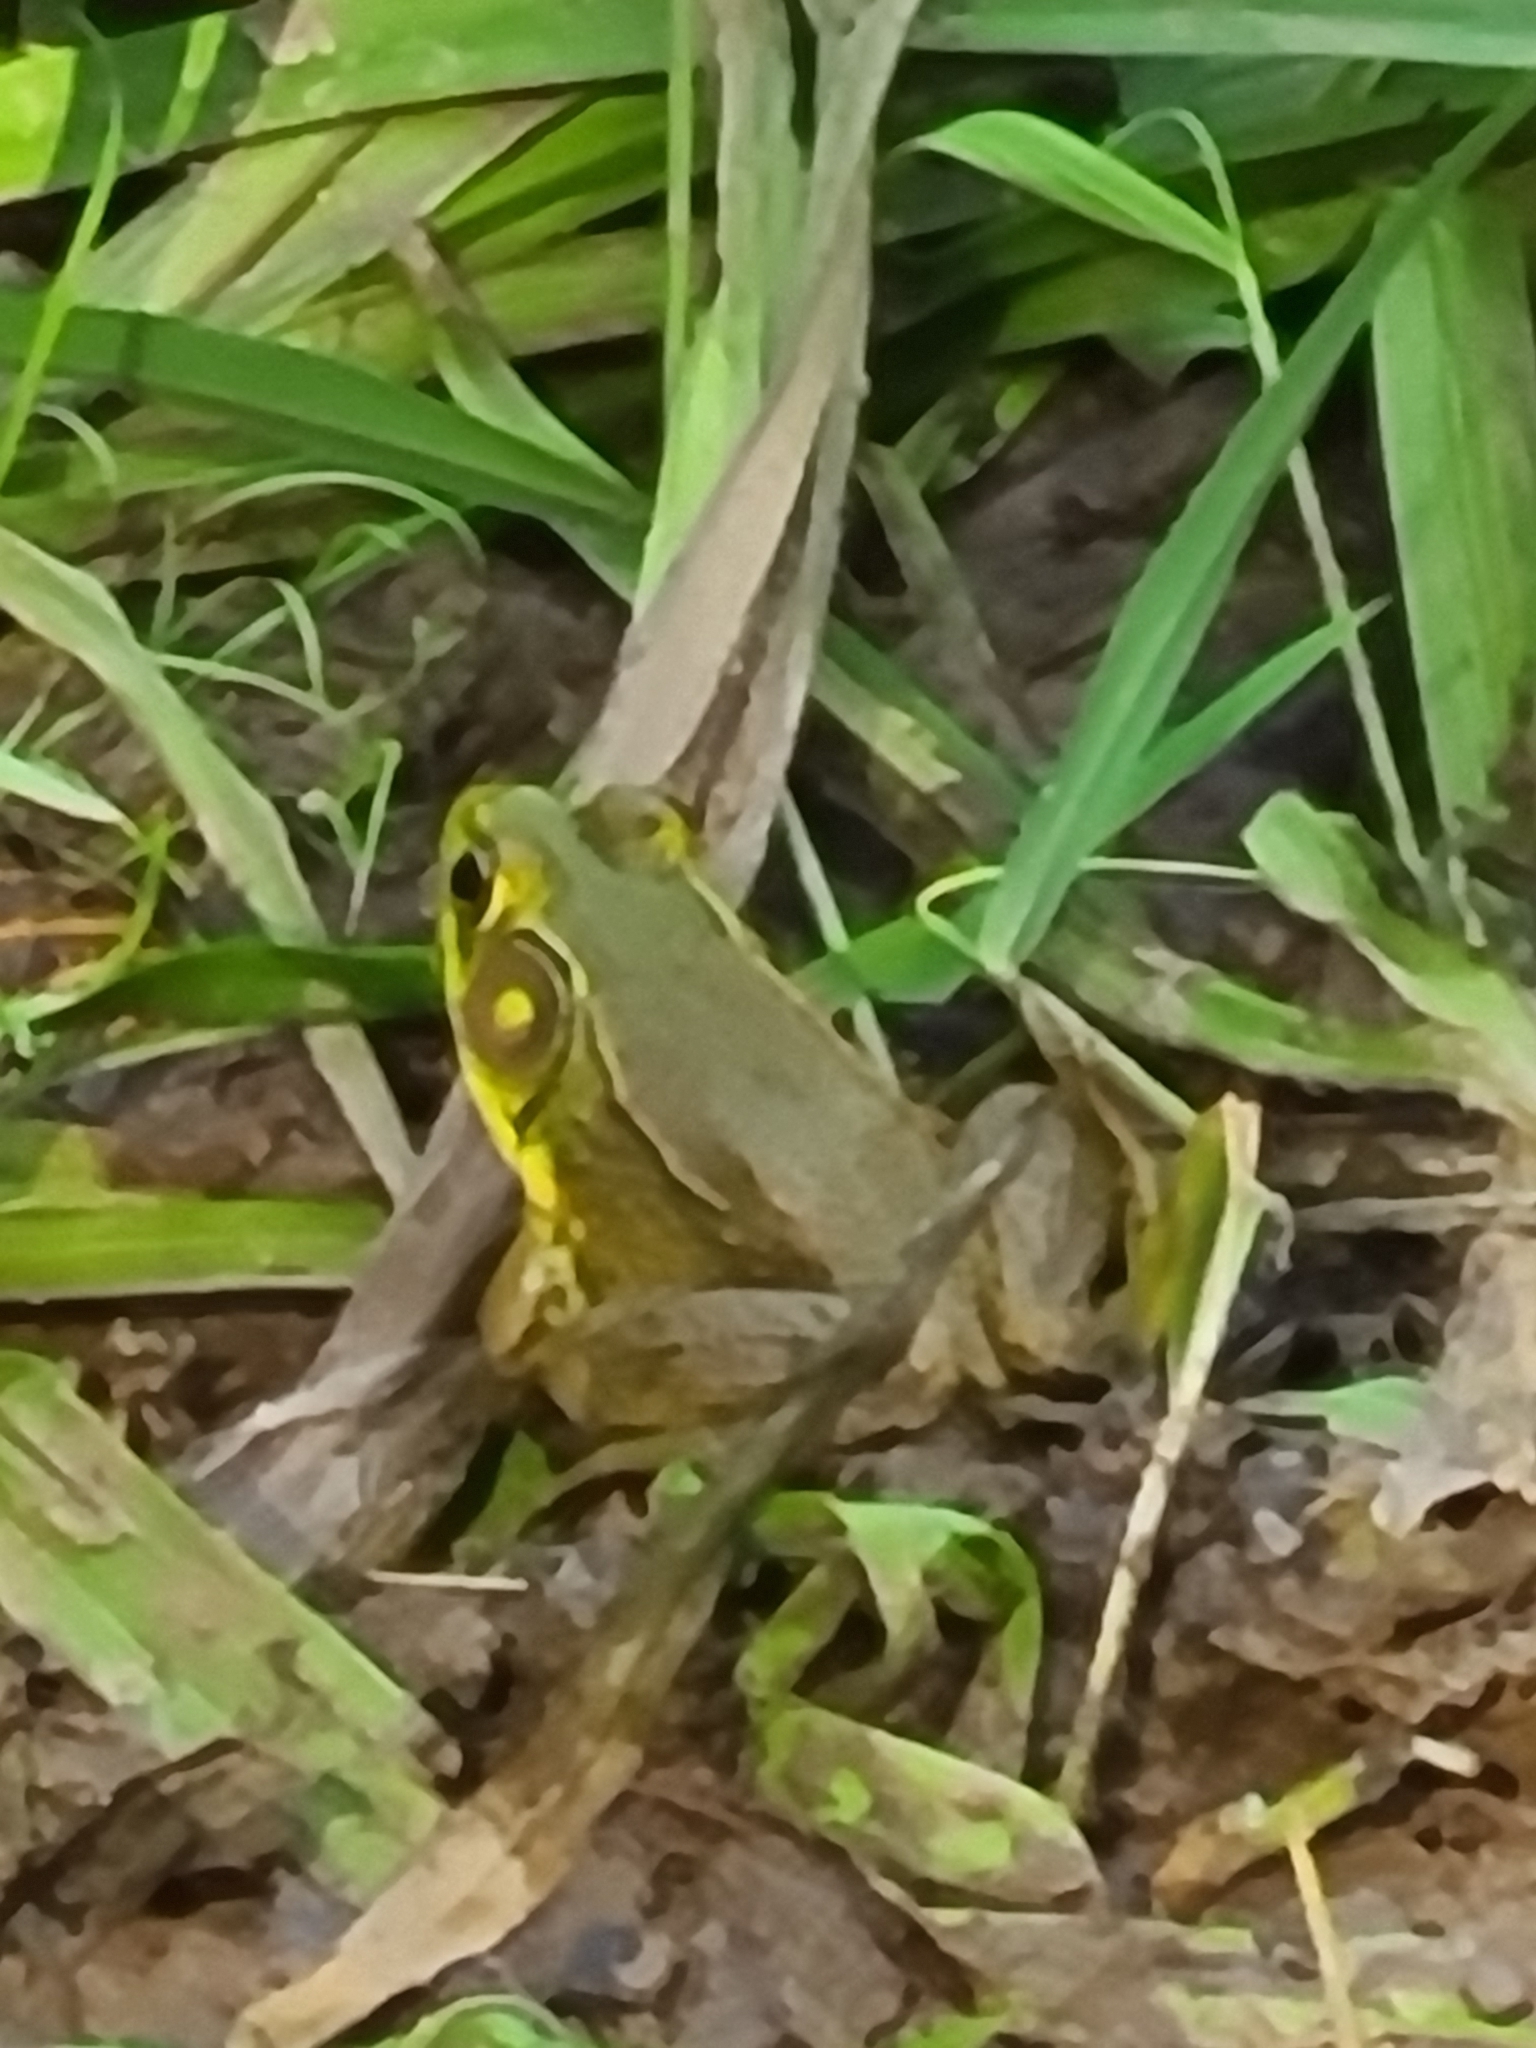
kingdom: Animalia
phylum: Chordata
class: Amphibia
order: Anura
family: Ranidae
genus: Lithobates
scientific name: Lithobates clamitans
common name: Green frog
